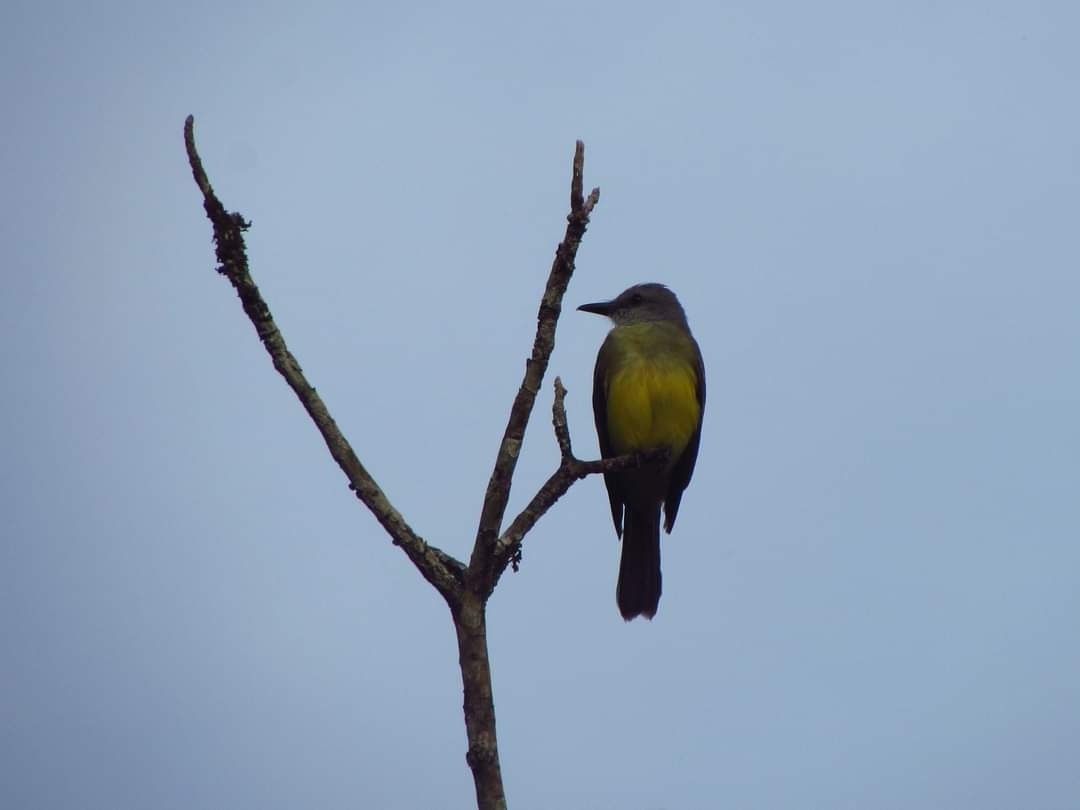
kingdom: Animalia
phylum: Chordata
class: Aves
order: Passeriformes
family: Tyrannidae
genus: Tyrannus
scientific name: Tyrannus melancholicus
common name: Tropical kingbird
